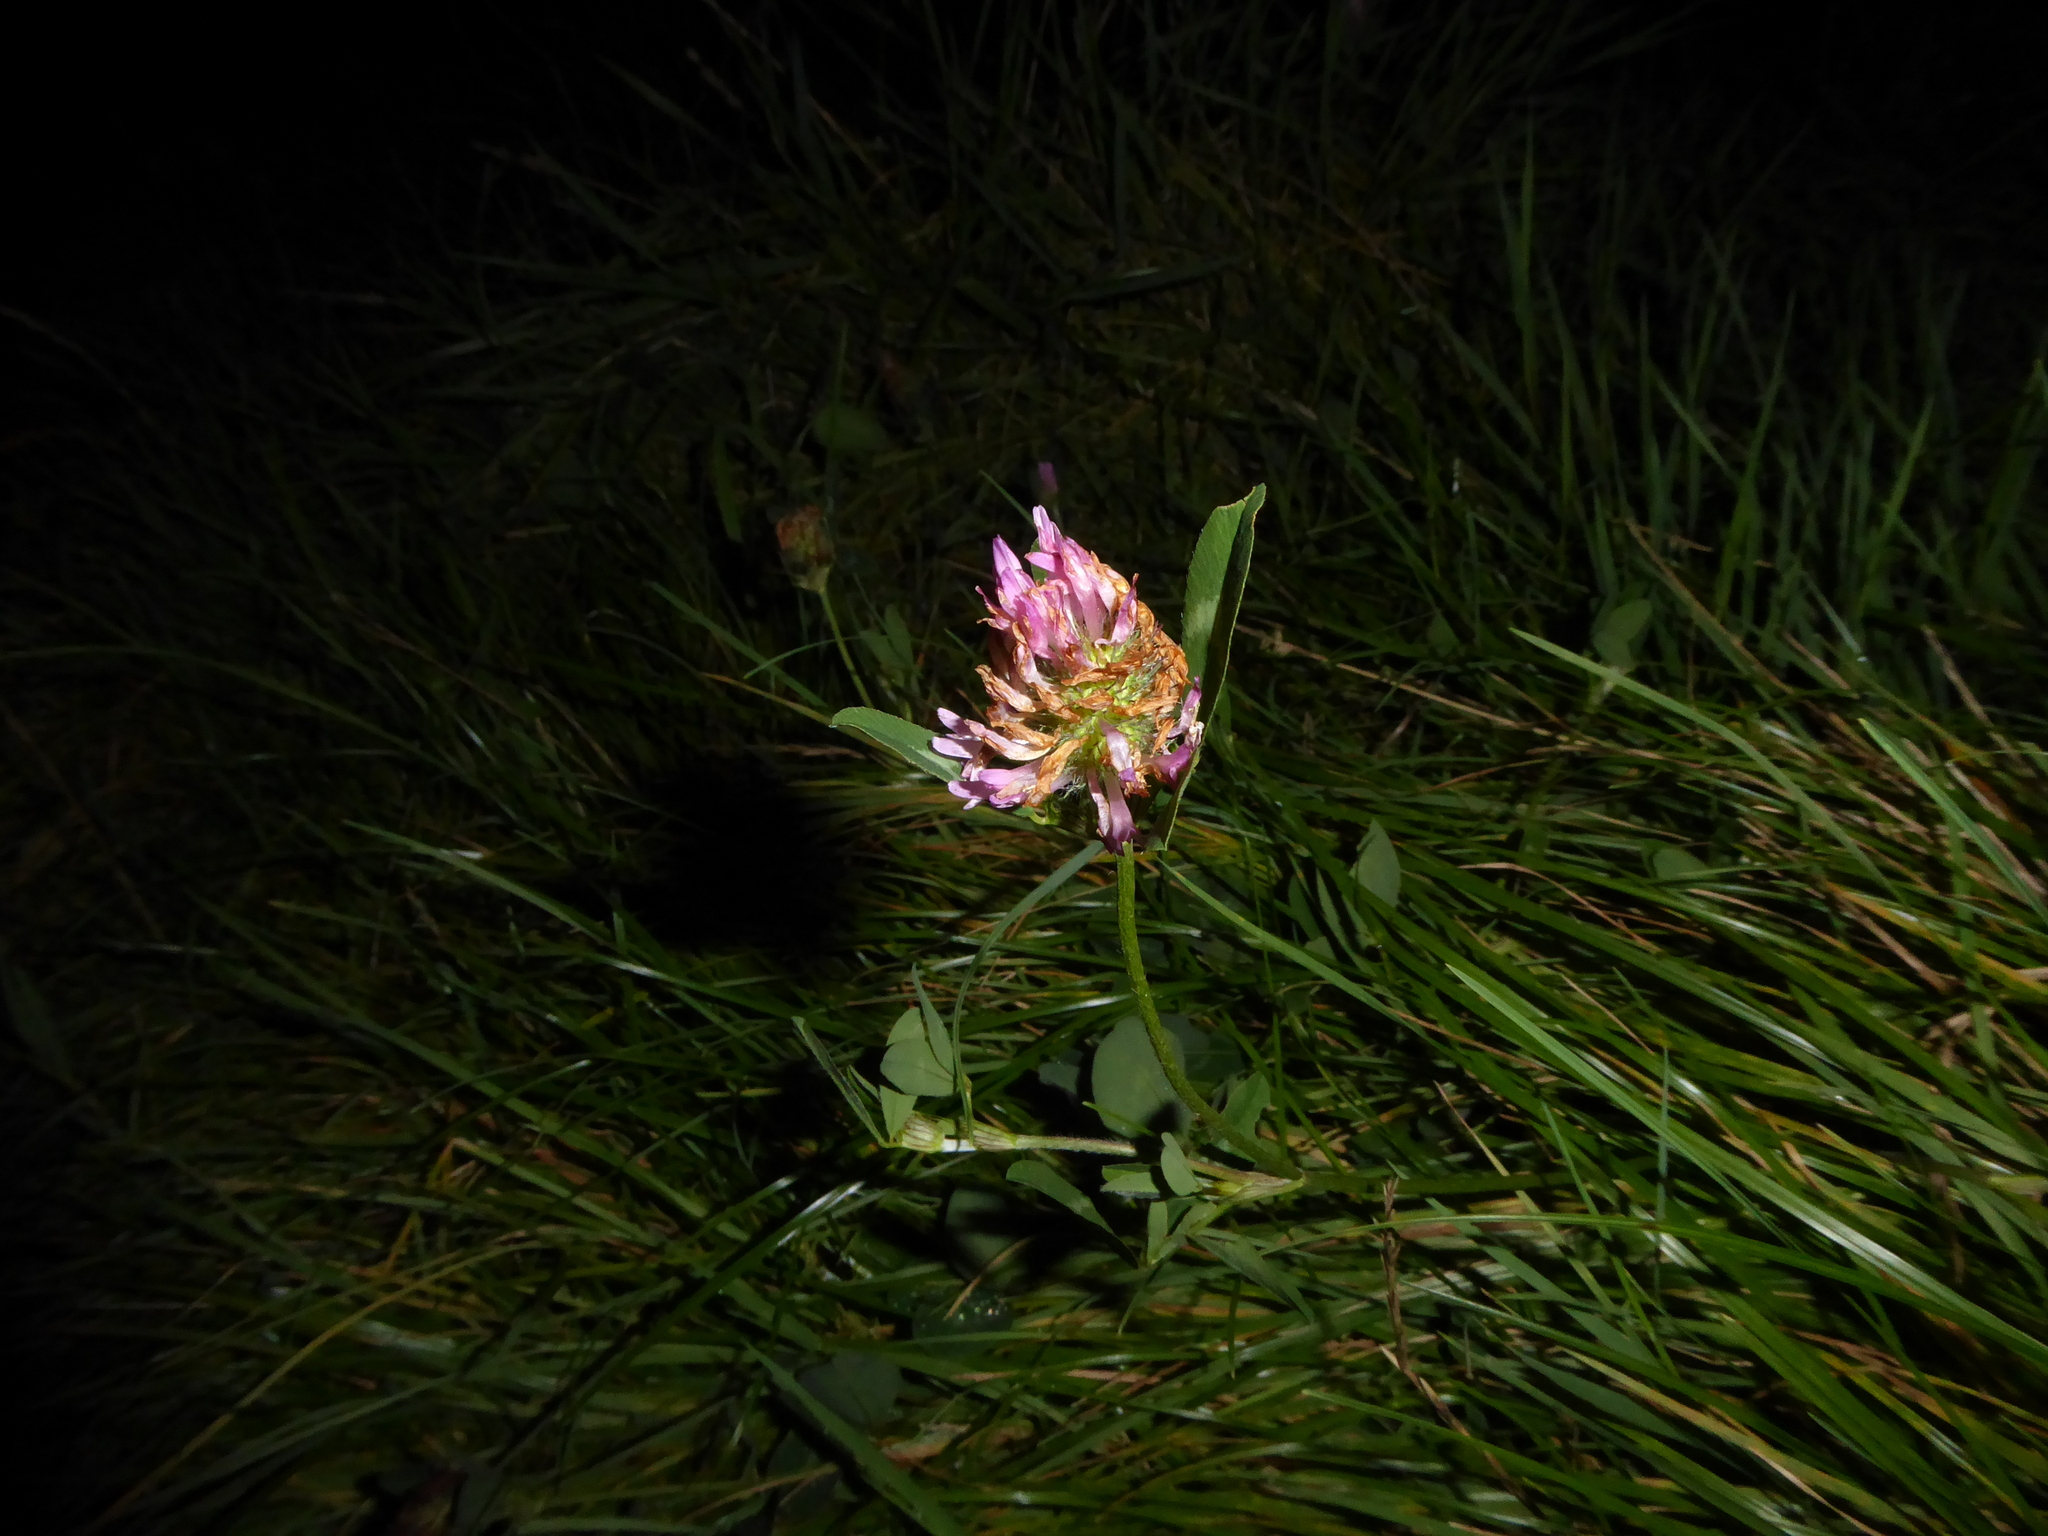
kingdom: Plantae
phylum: Tracheophyta
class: Magnoliopsida
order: Fabales
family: Fabaceae
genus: Trifolium
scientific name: Trifolium pratense
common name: Red clover
